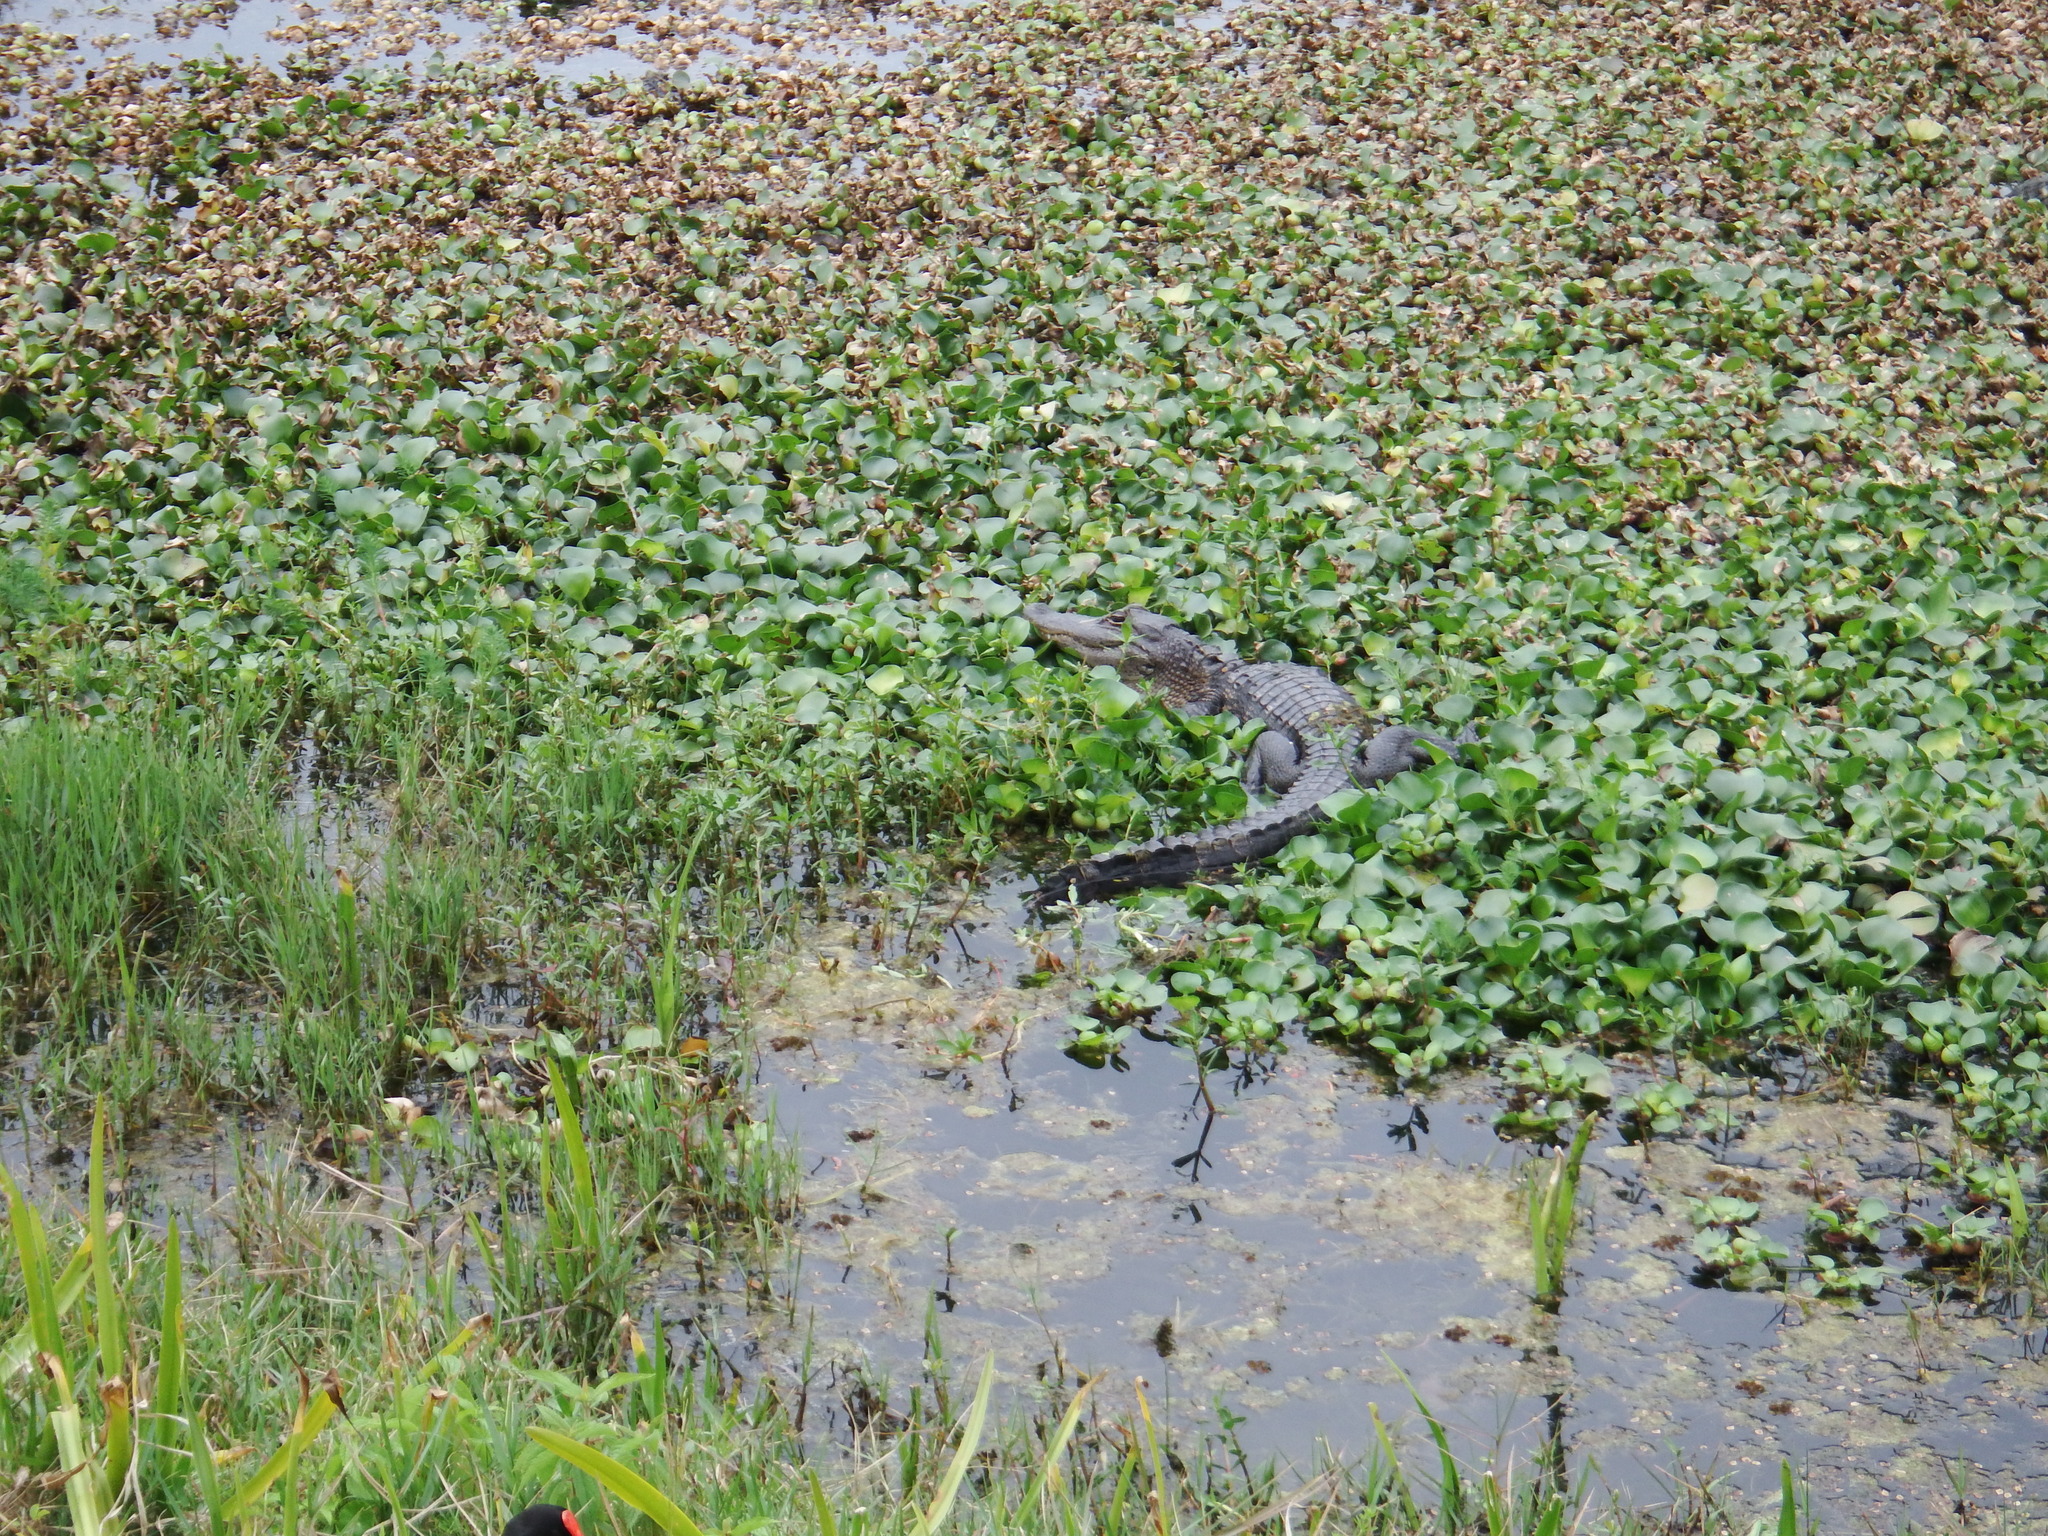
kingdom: Animalia
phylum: Chordata
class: Crocodylia
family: Alligatoridae
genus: Alligator
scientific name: Alligator mississippiensis
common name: American alligator
